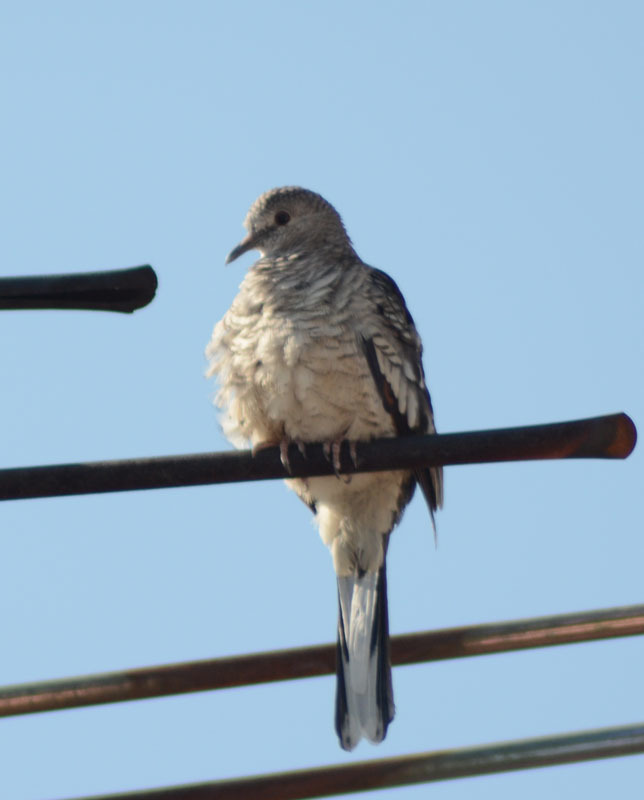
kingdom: Animalia
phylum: Chordata
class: Aves
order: Columbiformes
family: Columbidae
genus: Columbina
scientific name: Columbina inca
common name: Inca dove
